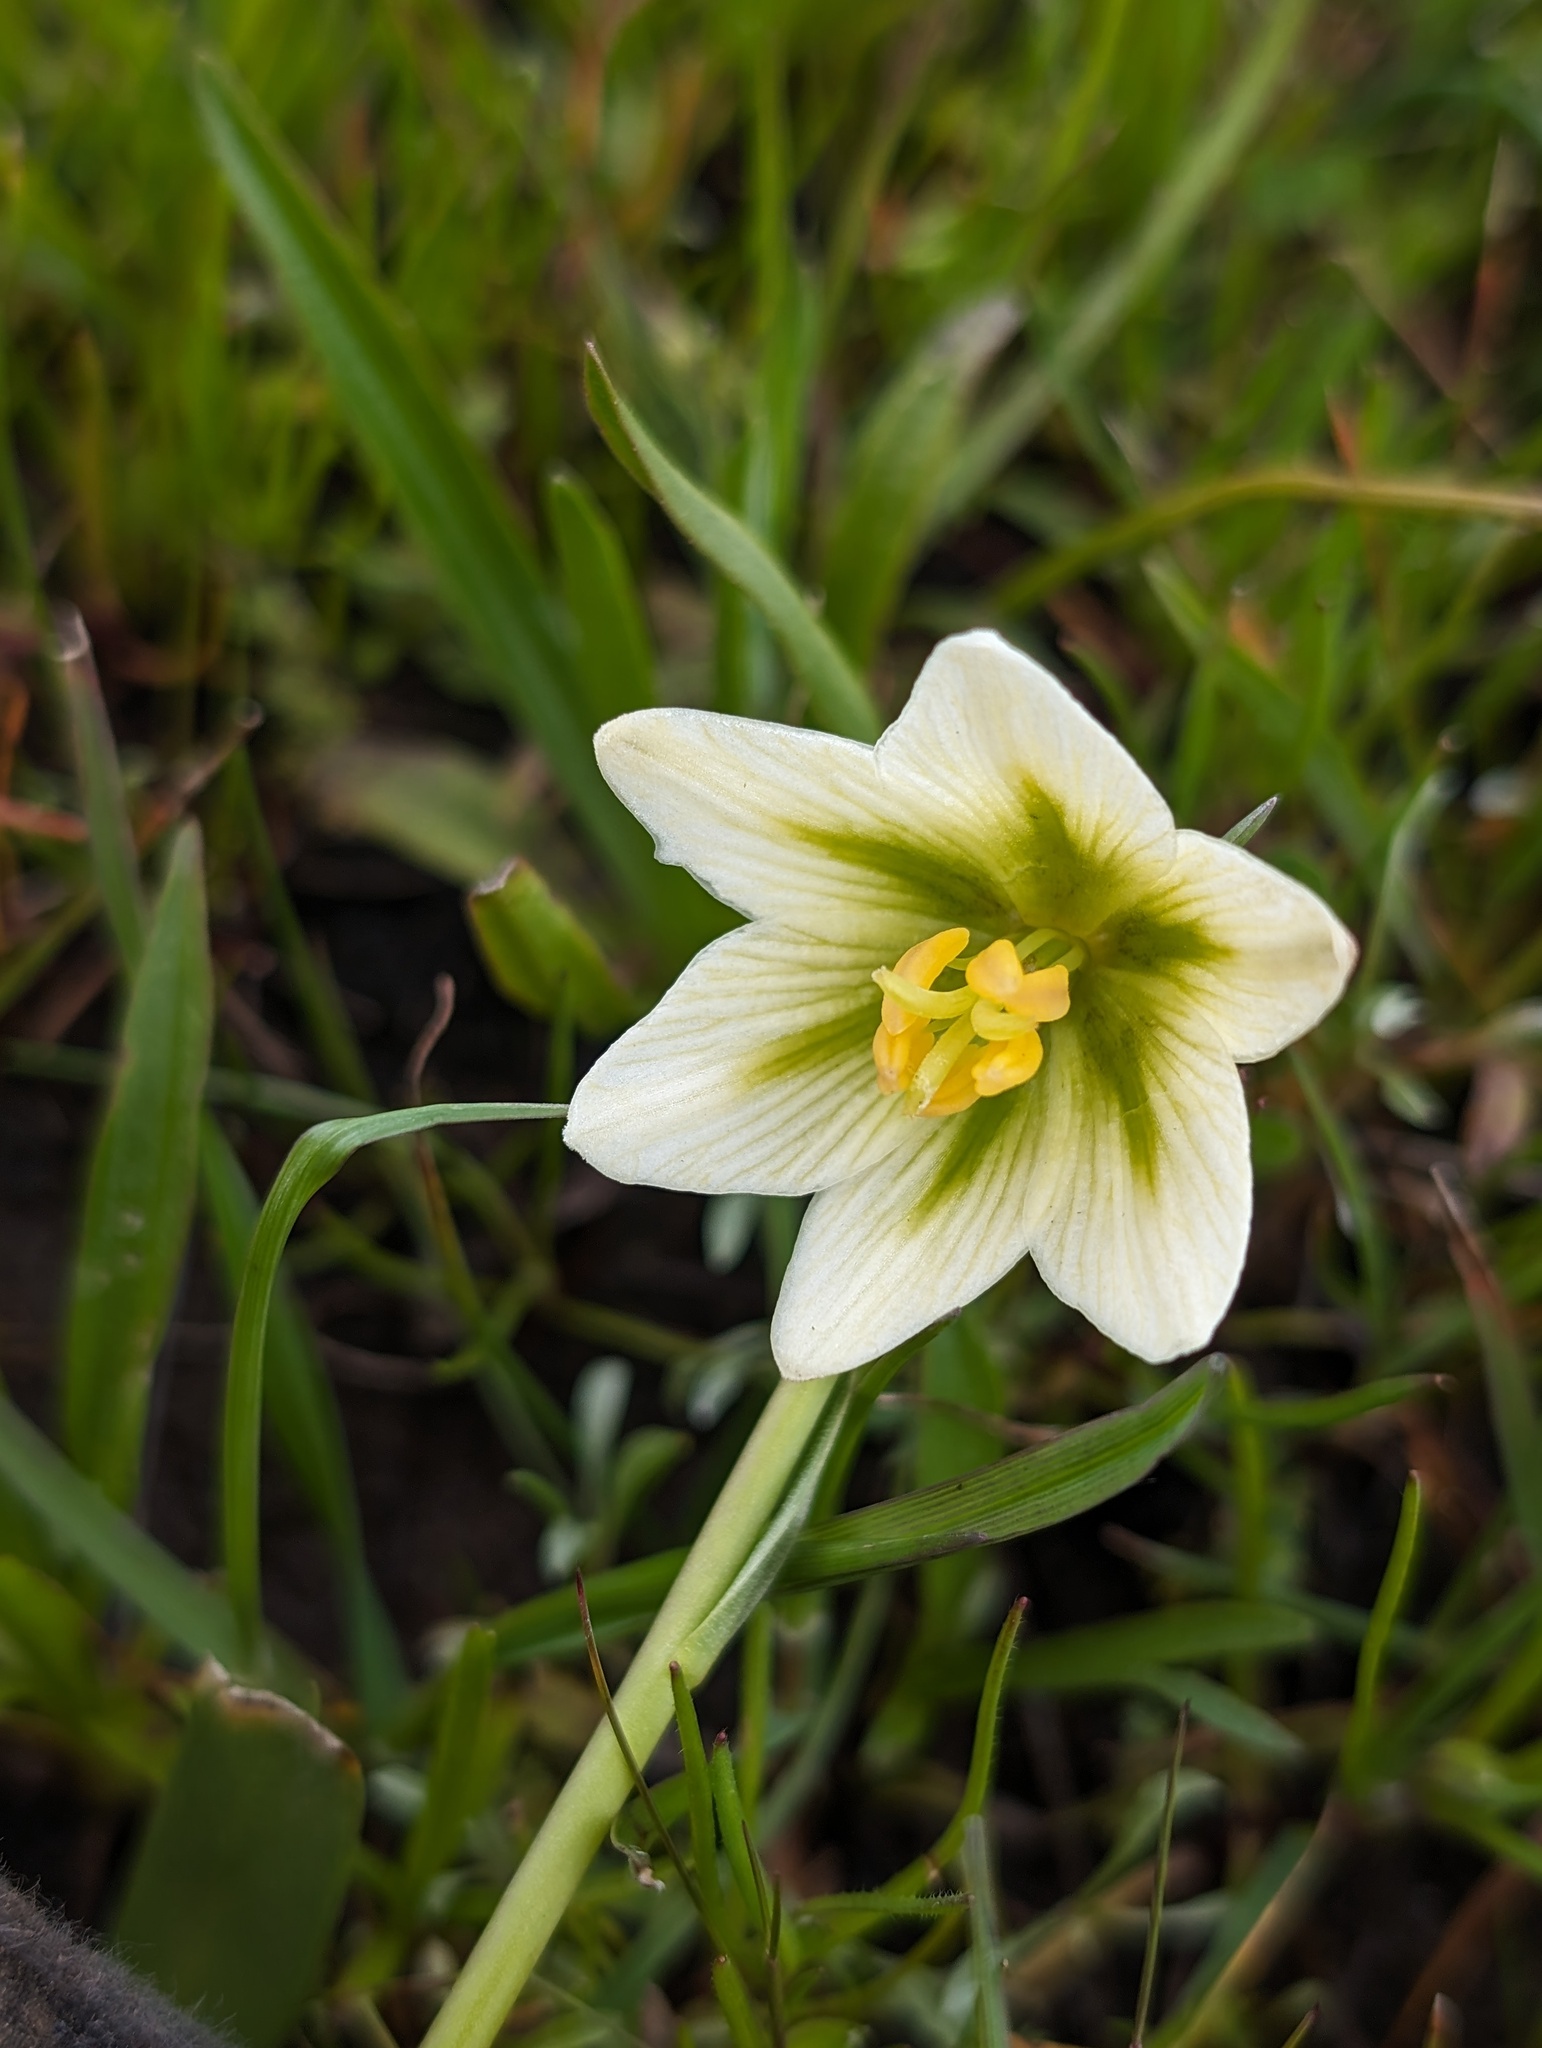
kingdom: Plantae
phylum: Tracheophyta
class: Liliopsida
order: Liliales
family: Liliaceae
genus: Fritillaria
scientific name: Fritillaria liliacea
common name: Fragrant fritillary
